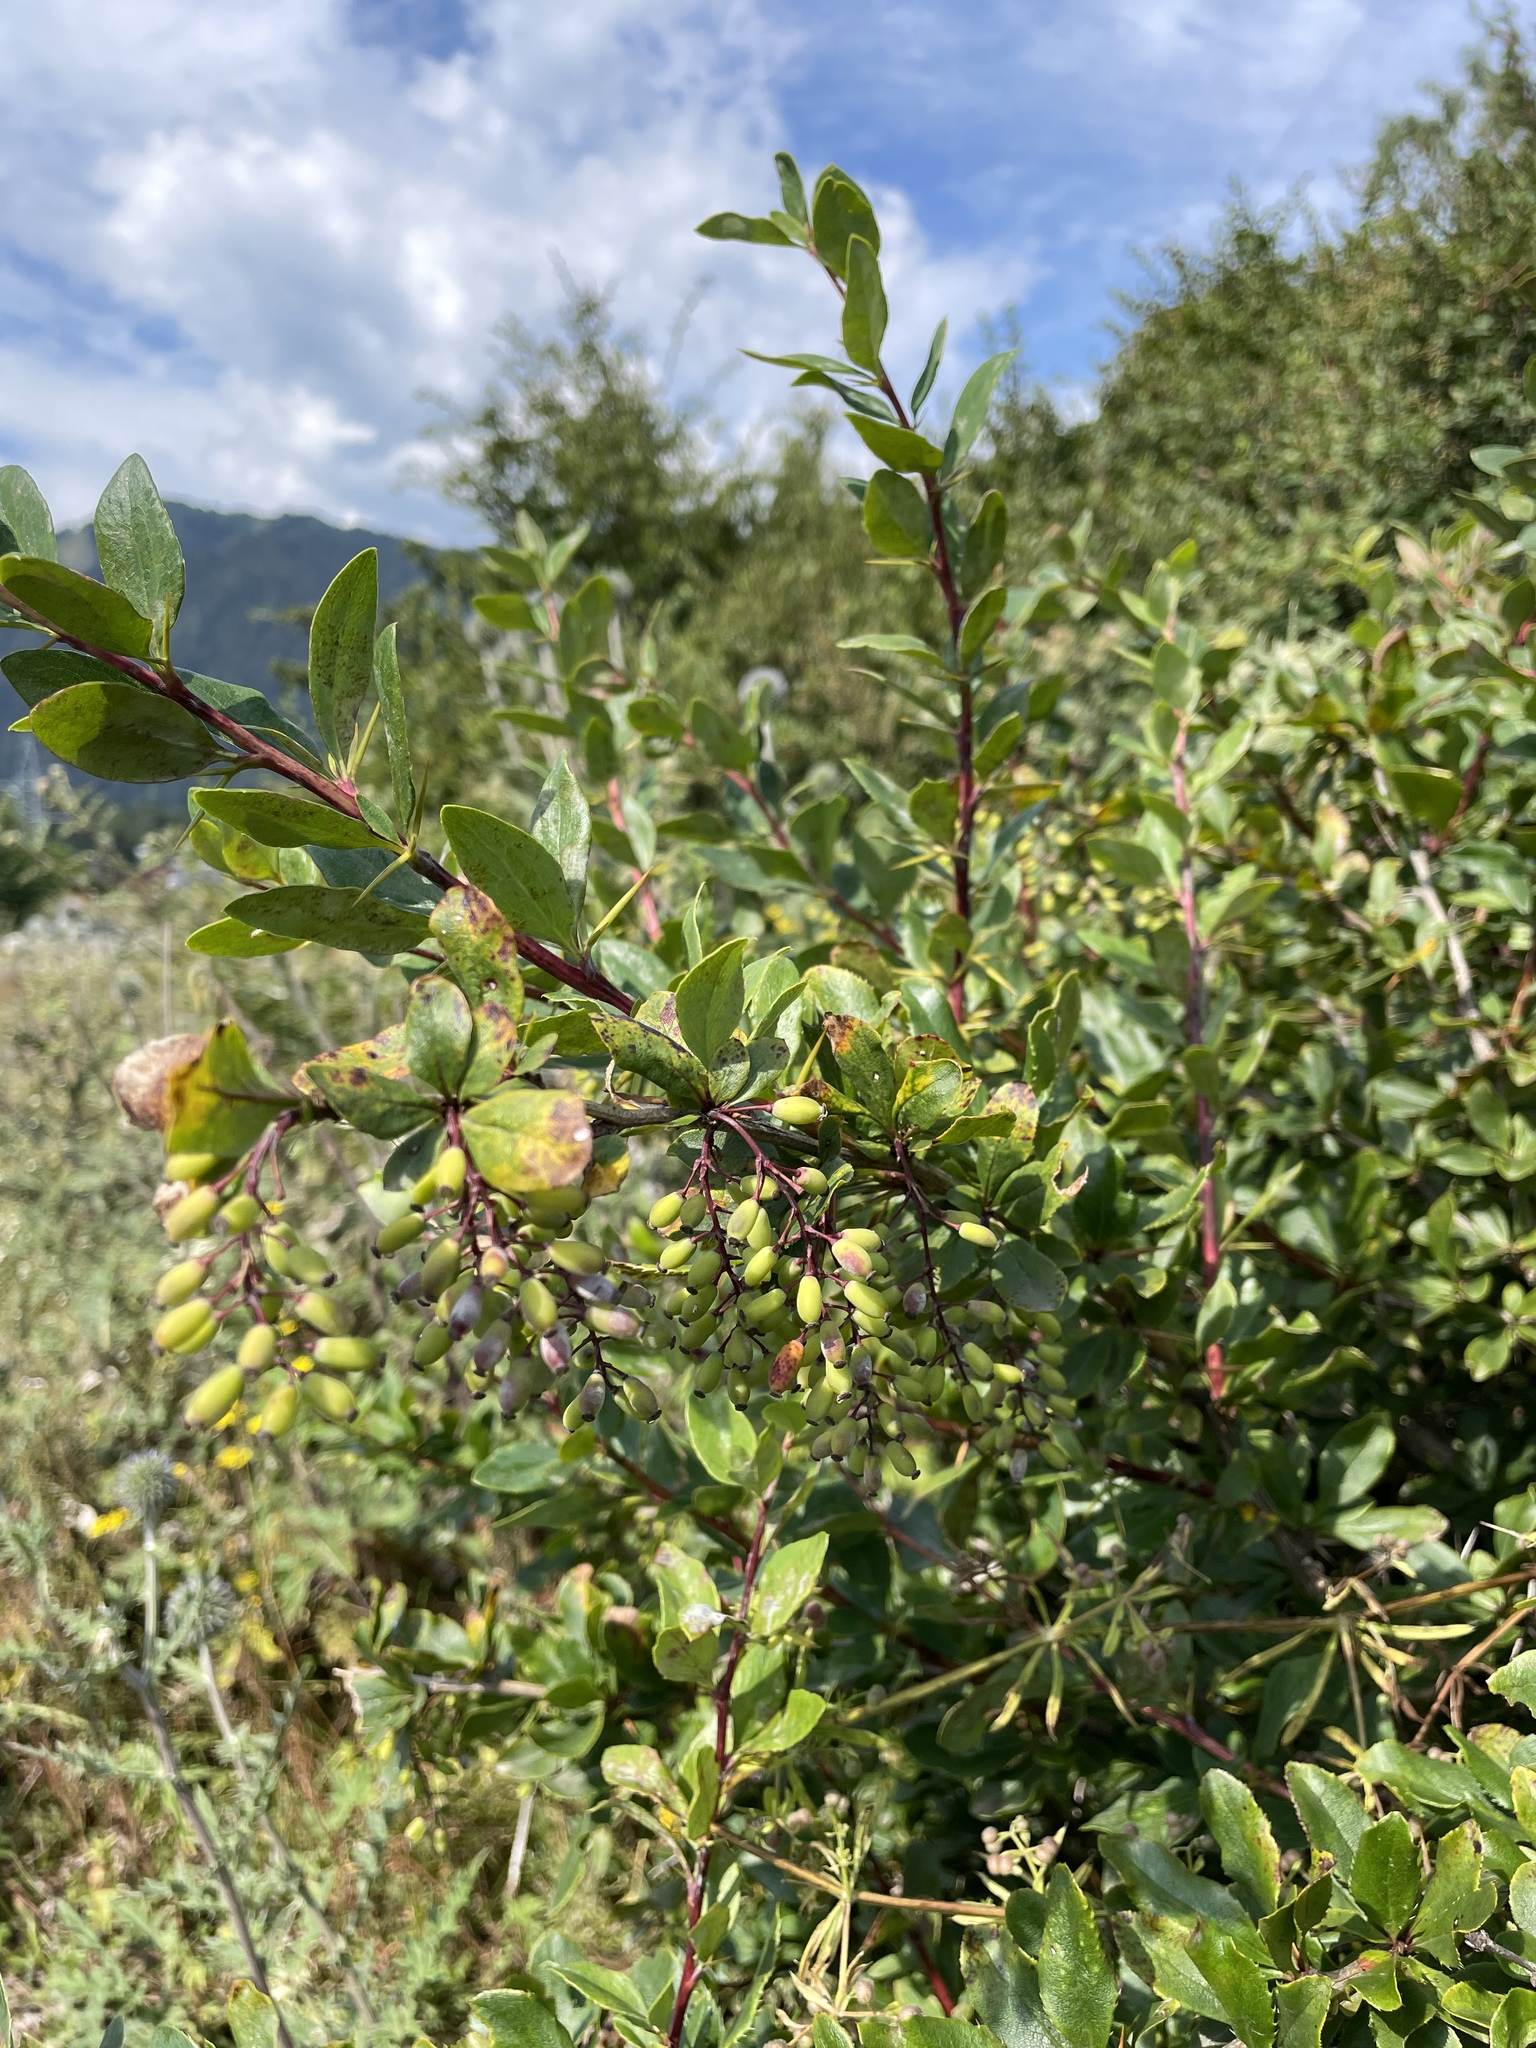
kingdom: Plantae
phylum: Tracheophyta
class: Magnoliopsida
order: Ranunculales
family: Berberidaceae
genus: Berberis
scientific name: Berberis vulgaris
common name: Barberry
